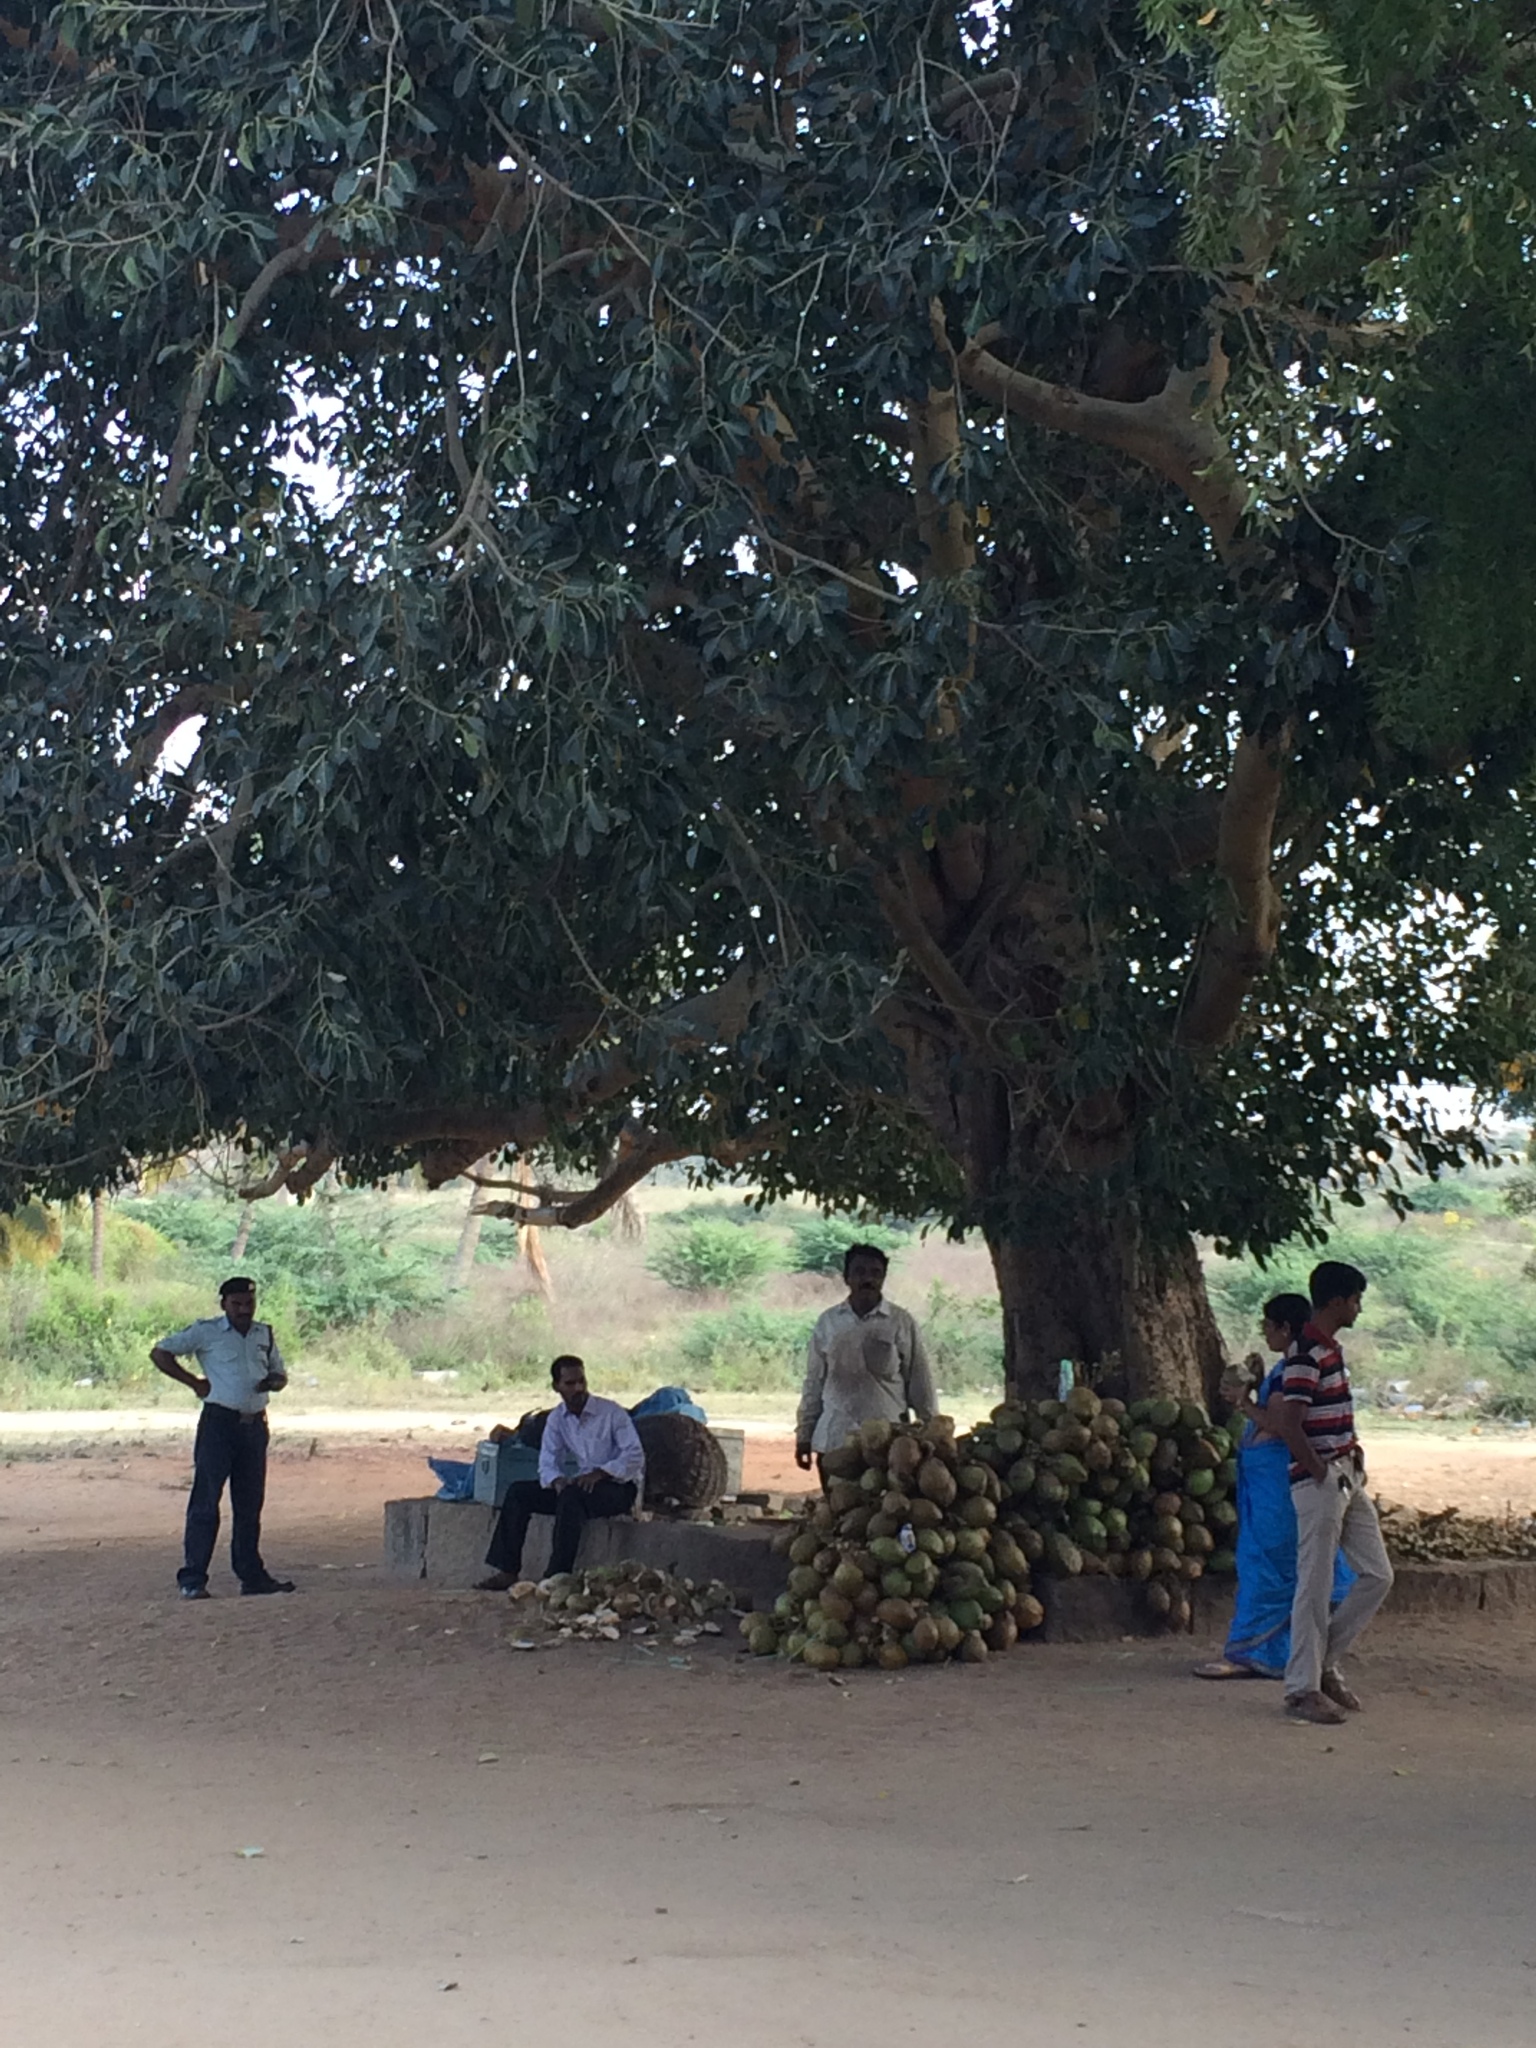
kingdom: Plantae
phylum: Tracheophyta
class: Magnoliopsida
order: Rosales
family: Moraceae
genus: Ficus
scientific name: Ficus benghalensis
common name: Indian banyan
